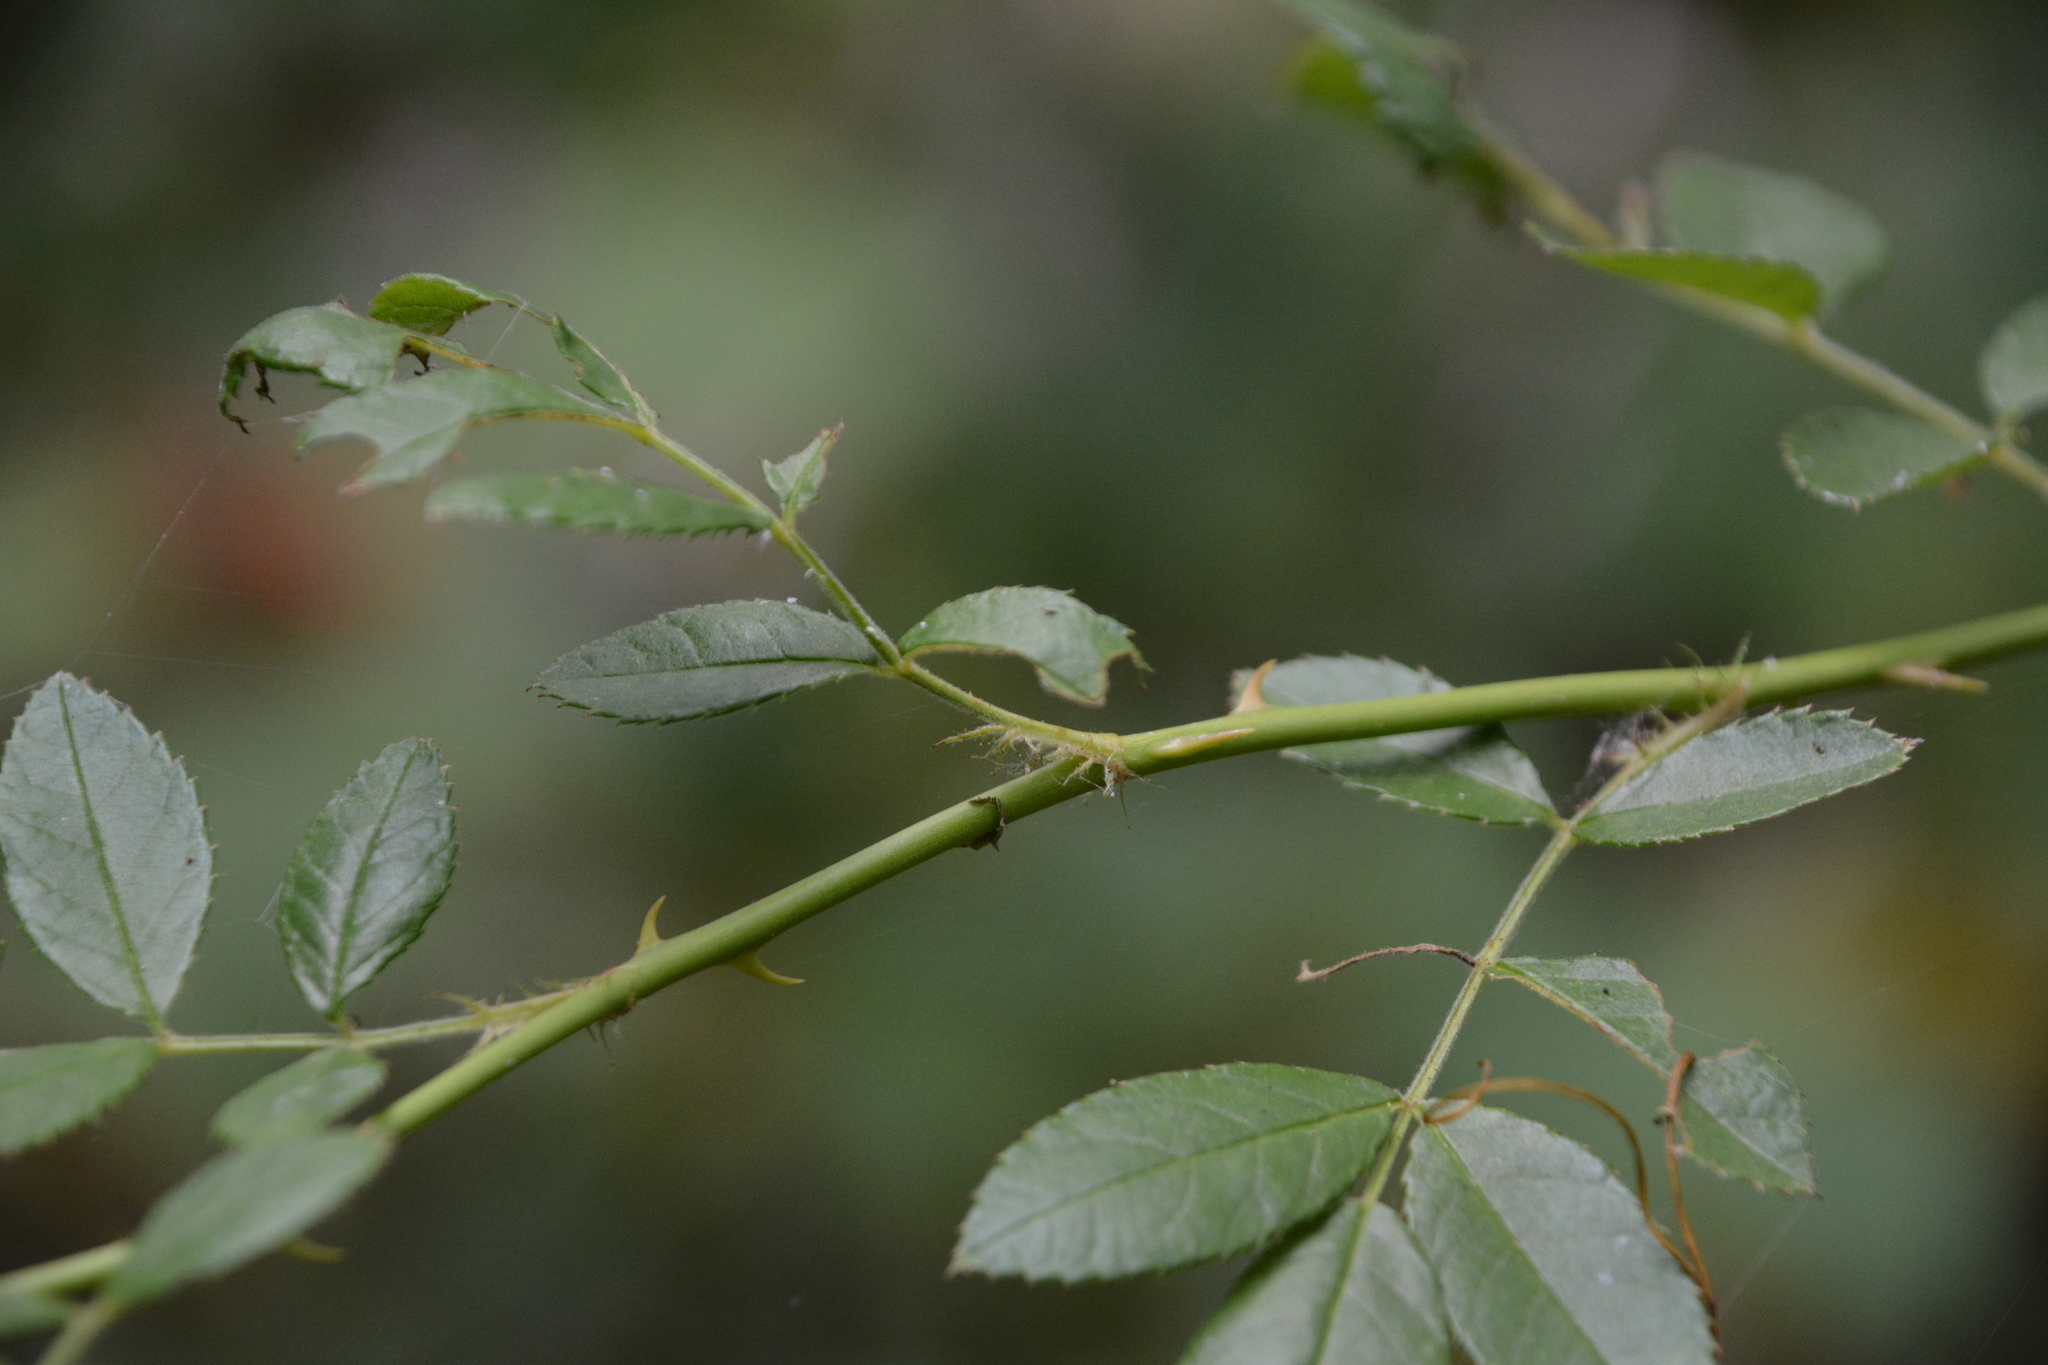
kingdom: Plantae
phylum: Tracheophyta
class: Magnoliopsida
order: Rosales
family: Rosaceae
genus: Rosa
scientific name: Rosa multiflora
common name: Multiflora rose
